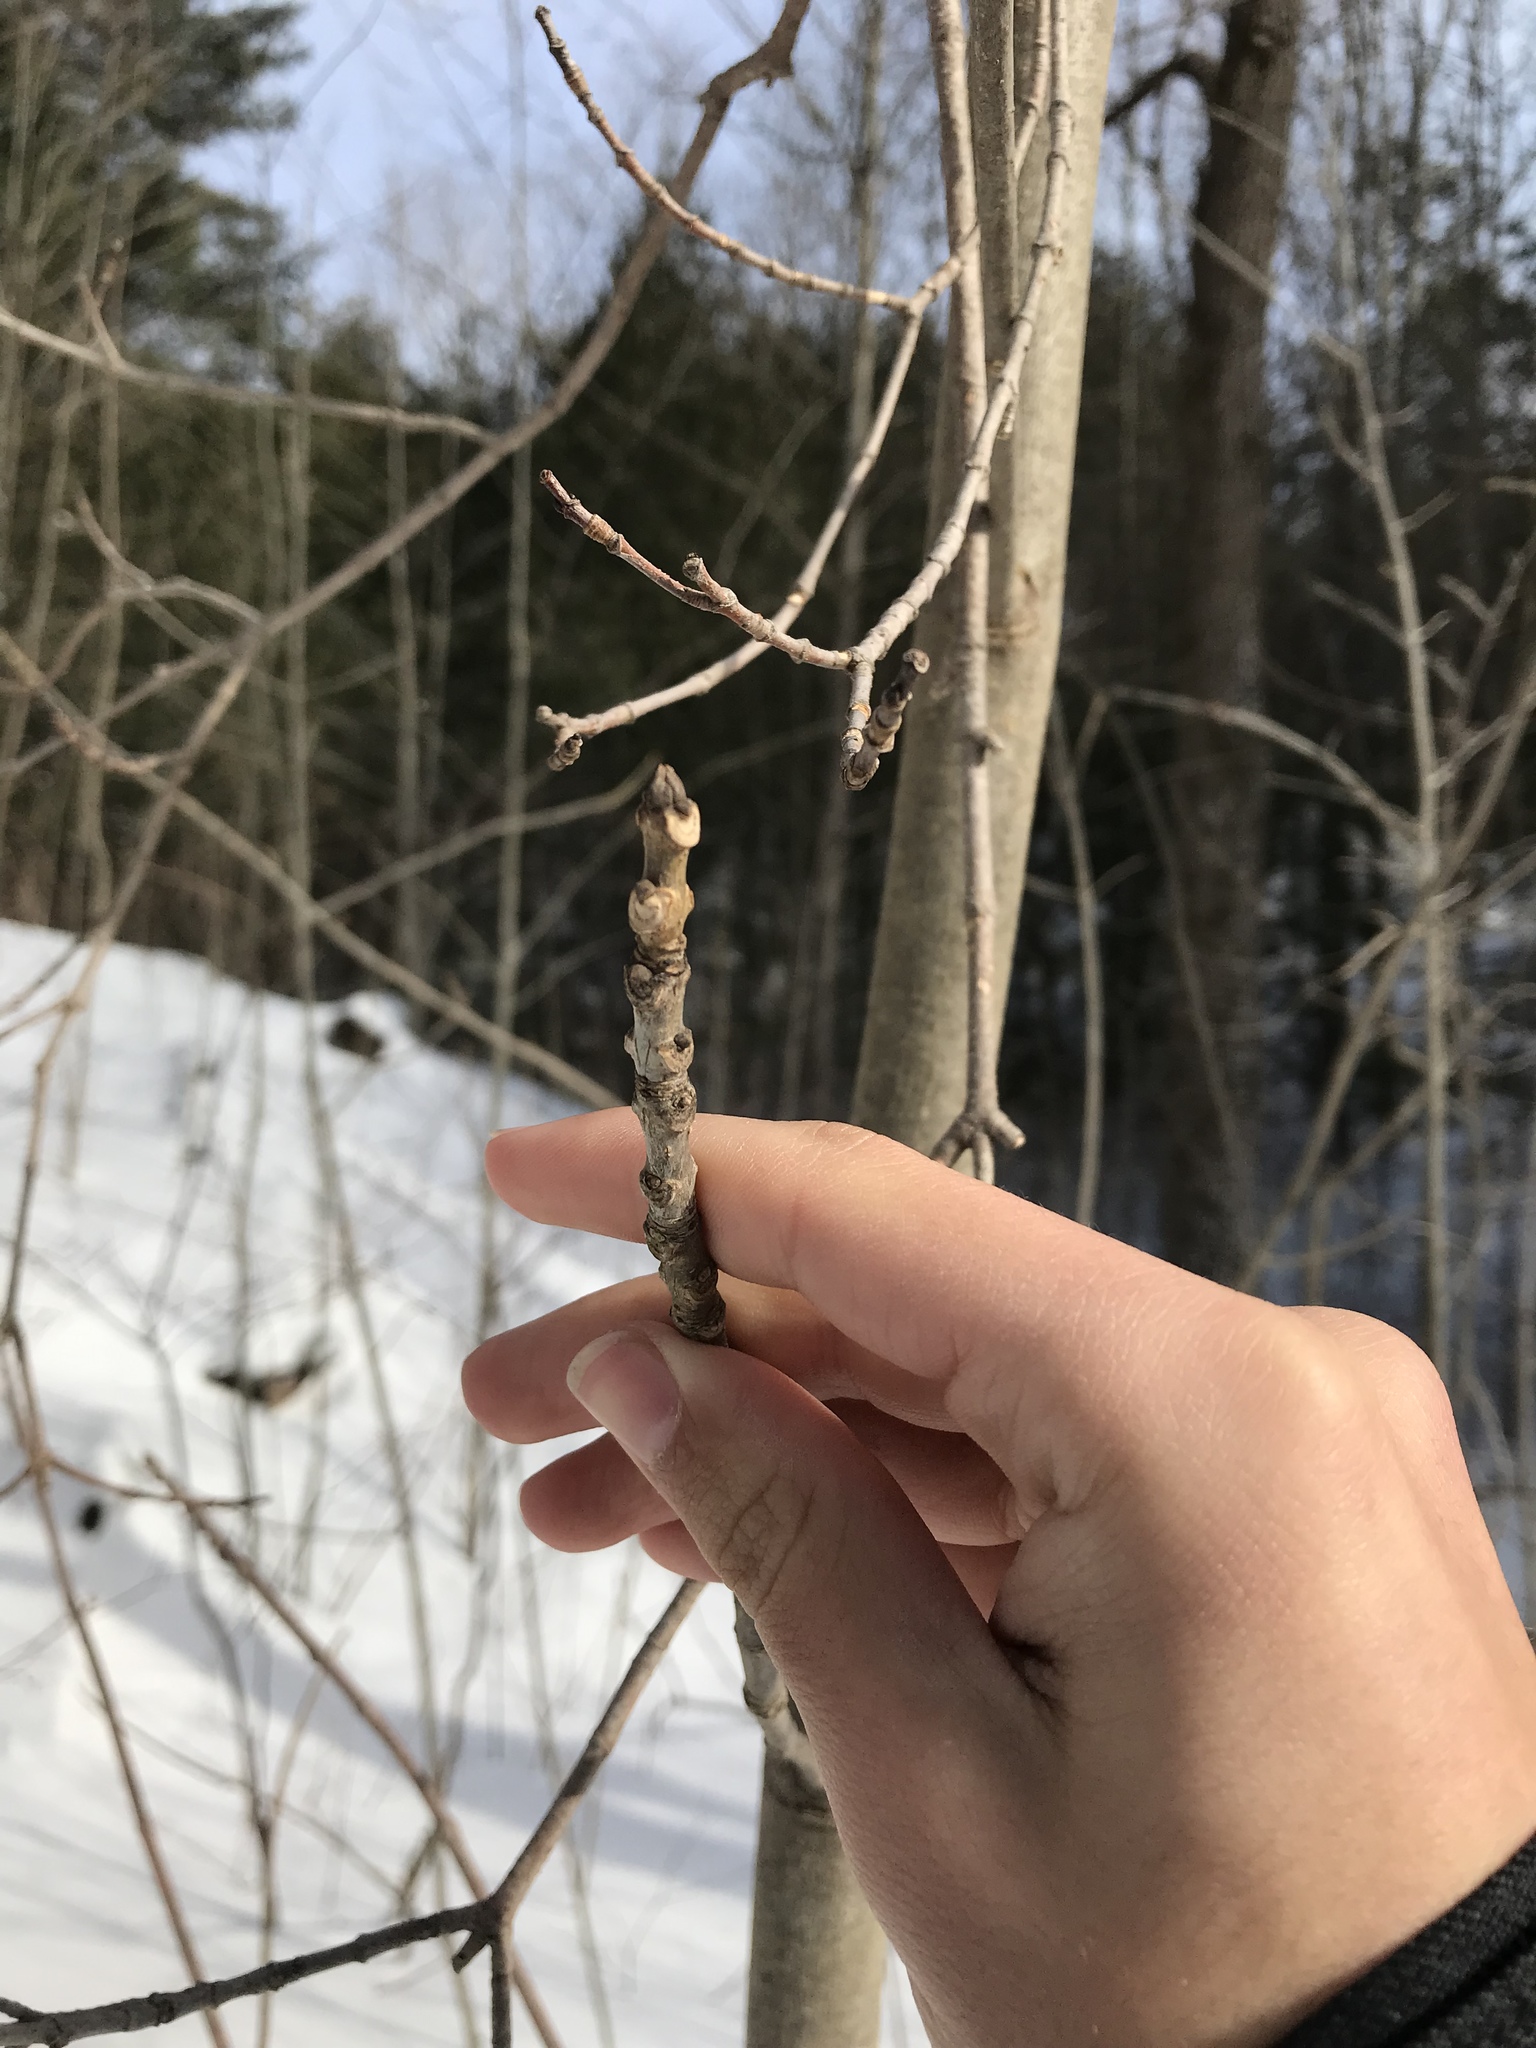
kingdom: Plantae
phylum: Tracheophyta
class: Magnoliopsida
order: Lamiales
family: Oleaceae
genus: Fraxinus
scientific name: Fraxinus americana
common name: White ash
